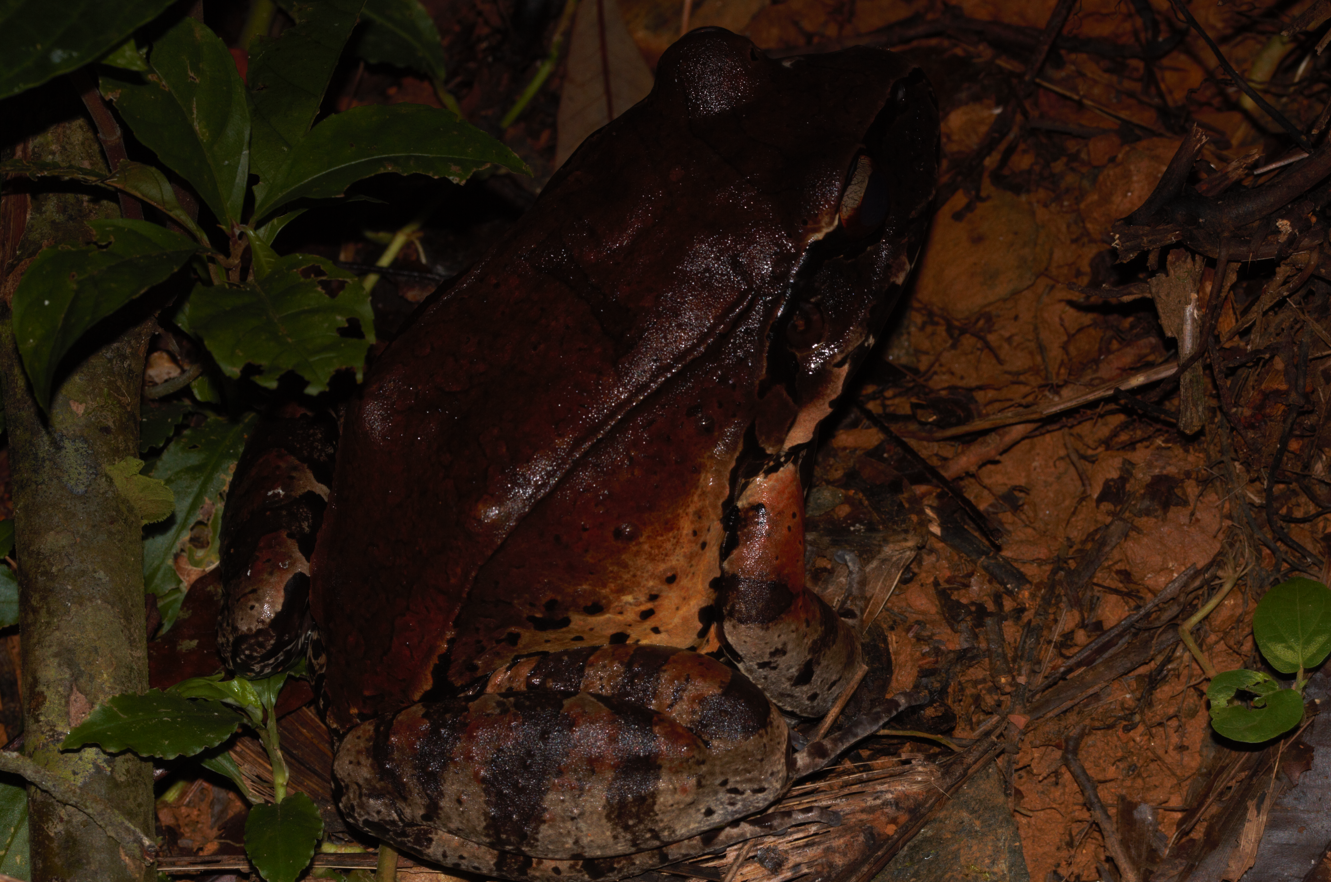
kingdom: Animalia
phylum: Chordata
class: Amphibia
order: Anura
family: Leptodactylidae
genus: Leptodactylus
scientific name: Leptodactylus pentadactylus
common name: Smoky jungle frog
